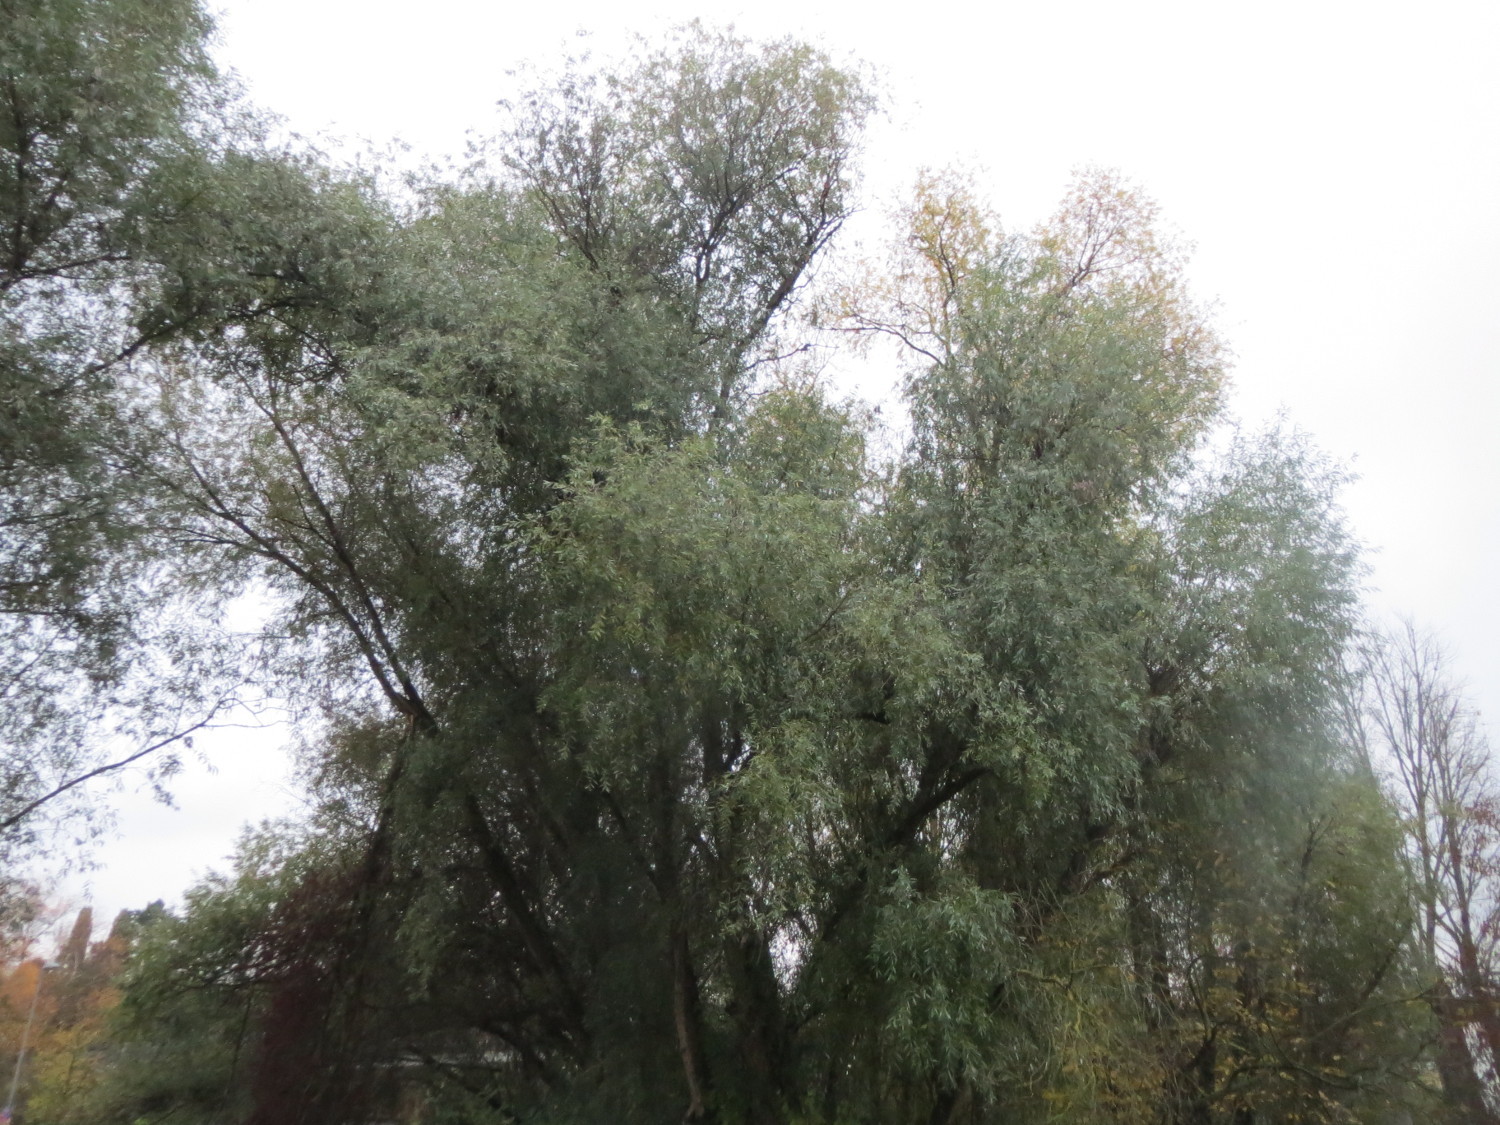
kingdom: Plantae
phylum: Tracheophyta
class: Magnoliopsida
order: Malpighiales
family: Salicaceae
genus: Salix
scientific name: Salix alba
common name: White willow
